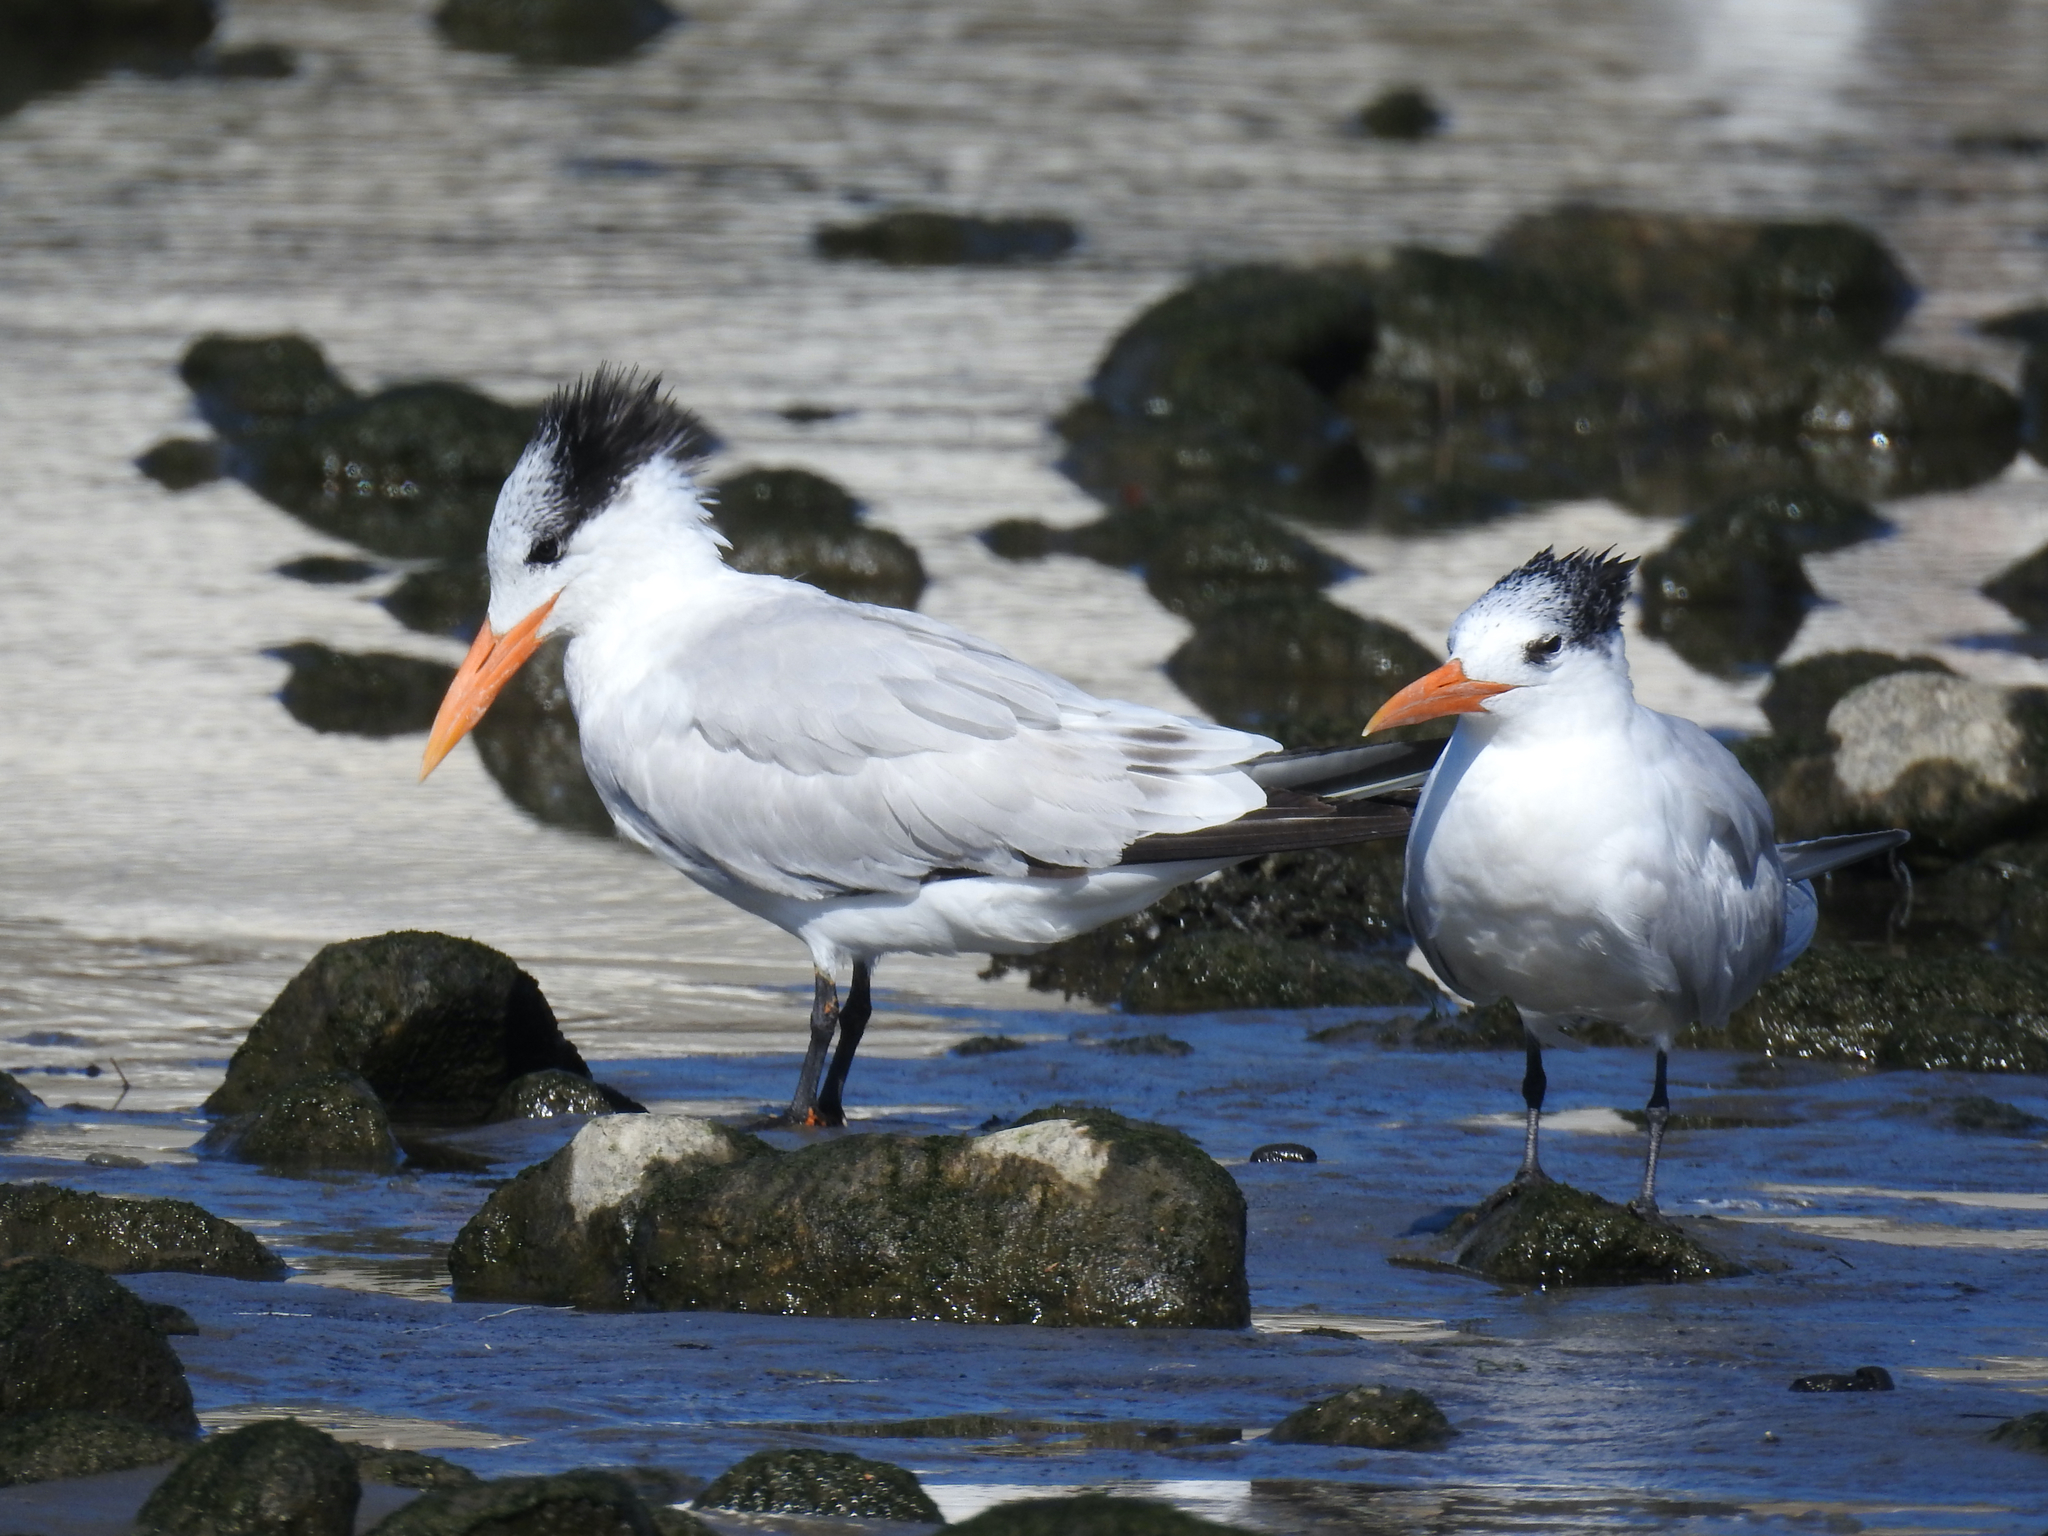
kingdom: Animalia
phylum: Chordata
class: Aves
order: Charadriiformes
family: Laridae
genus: Thalasseus
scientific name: Thalasseus maximus
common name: Royal tern
